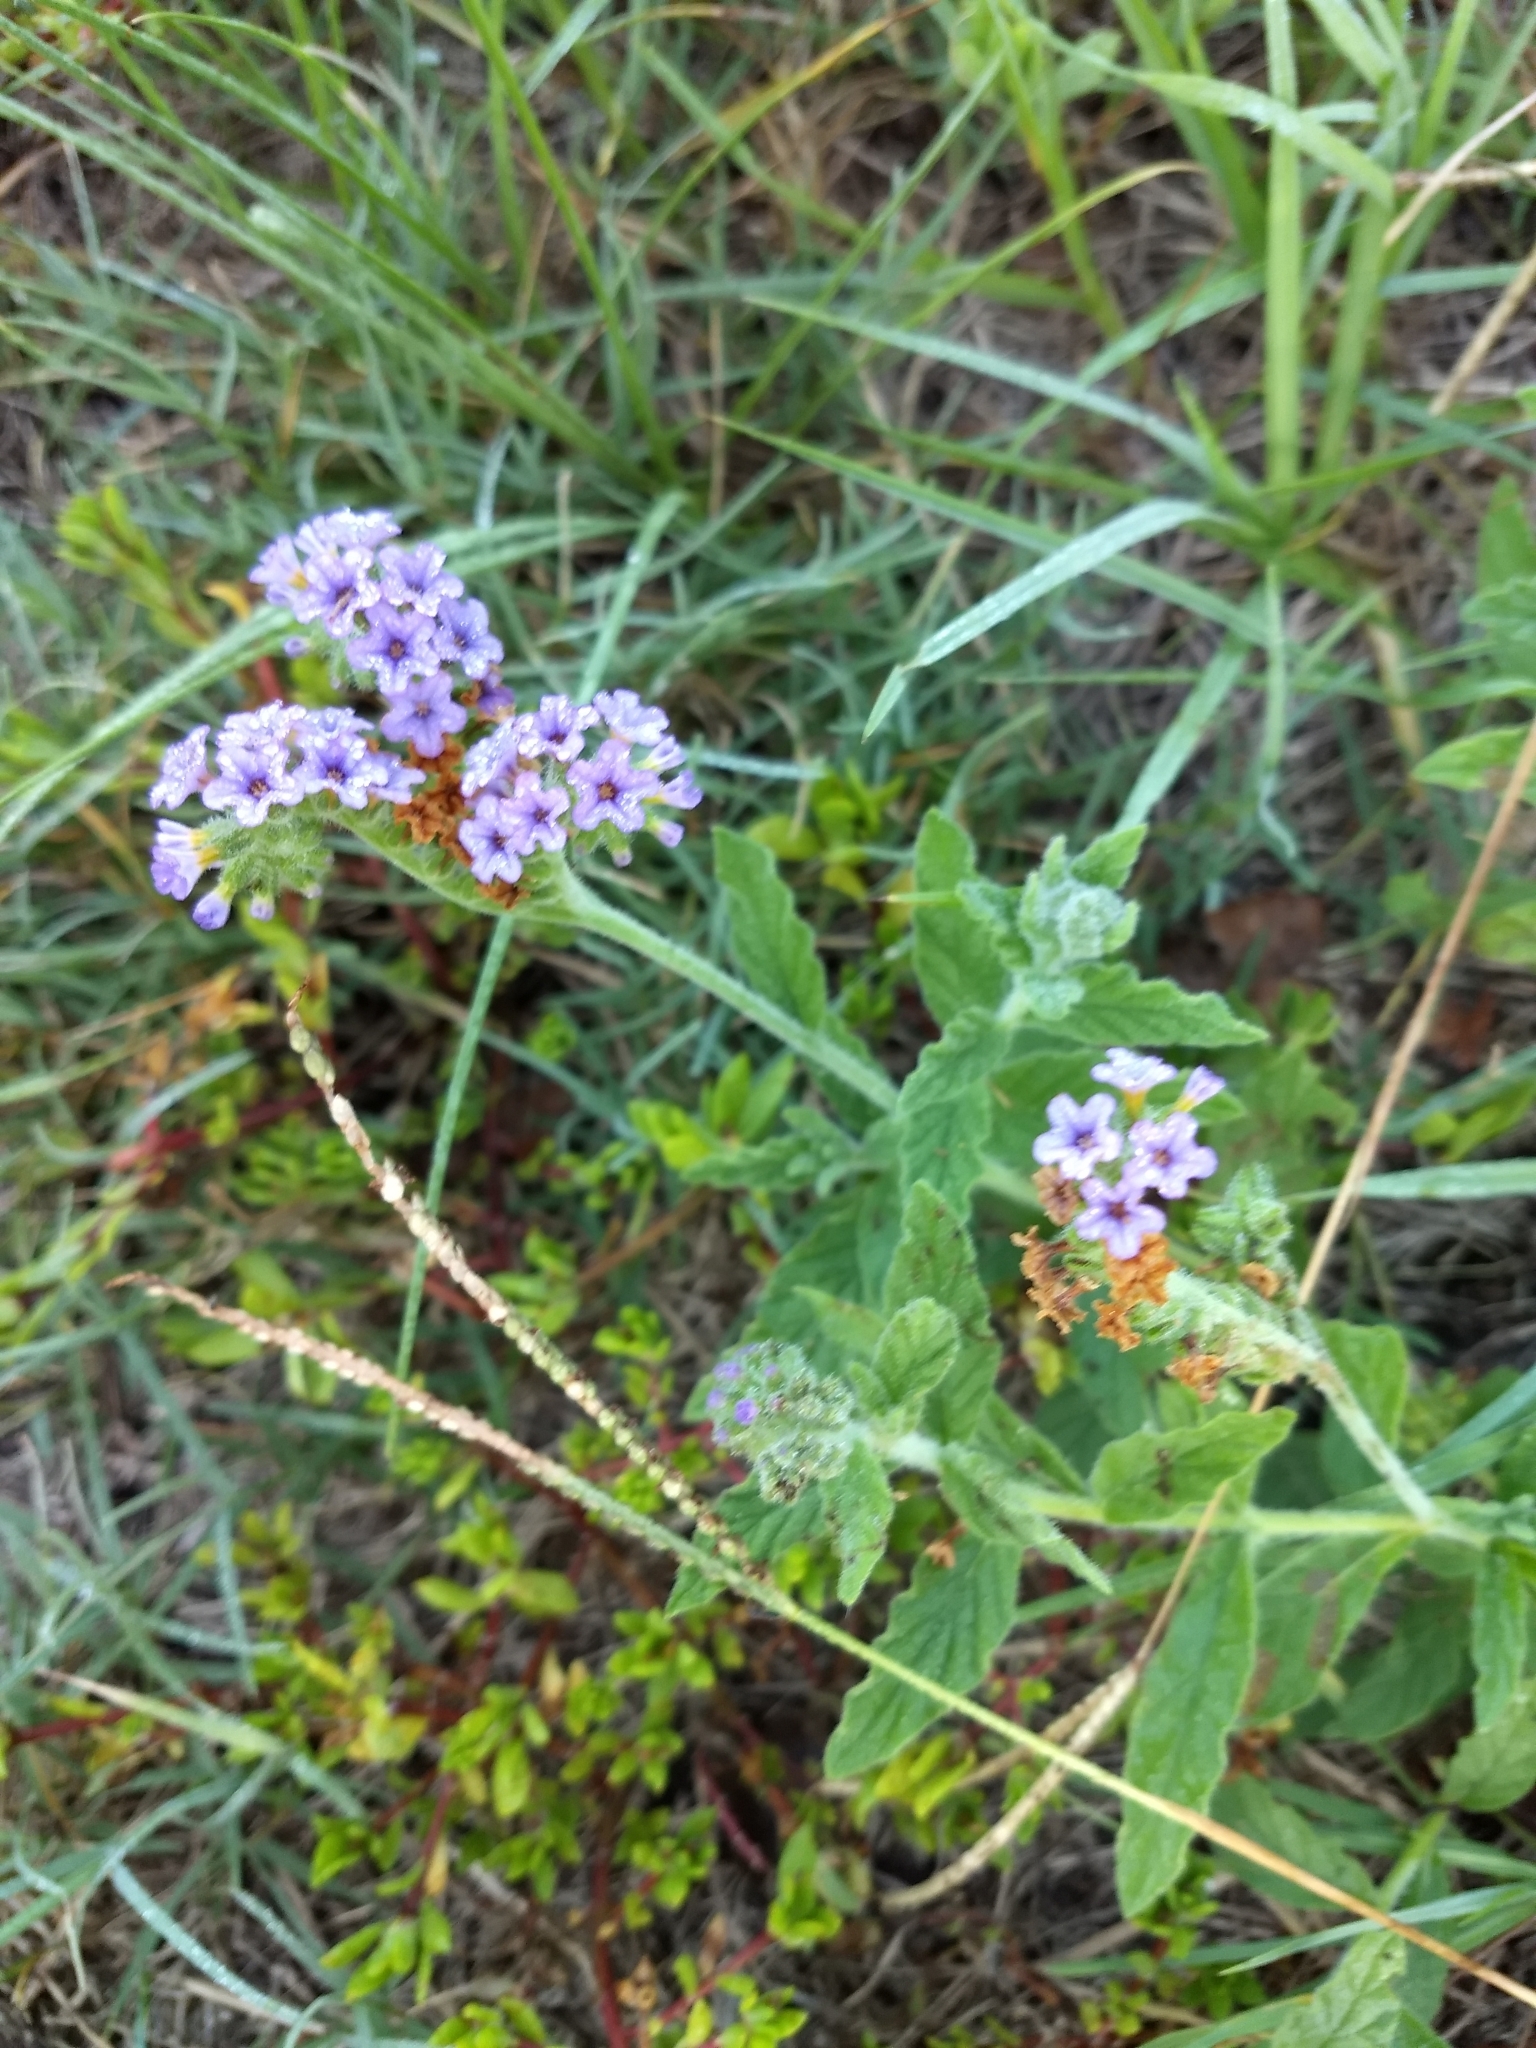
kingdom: Plantae
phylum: Tracheophyta
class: Magnoliopsida
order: Boraginales
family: Heliotropiaceae
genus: Heliotropium
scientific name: Heliotropium amplexicaule
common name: Clasping heliotrope
